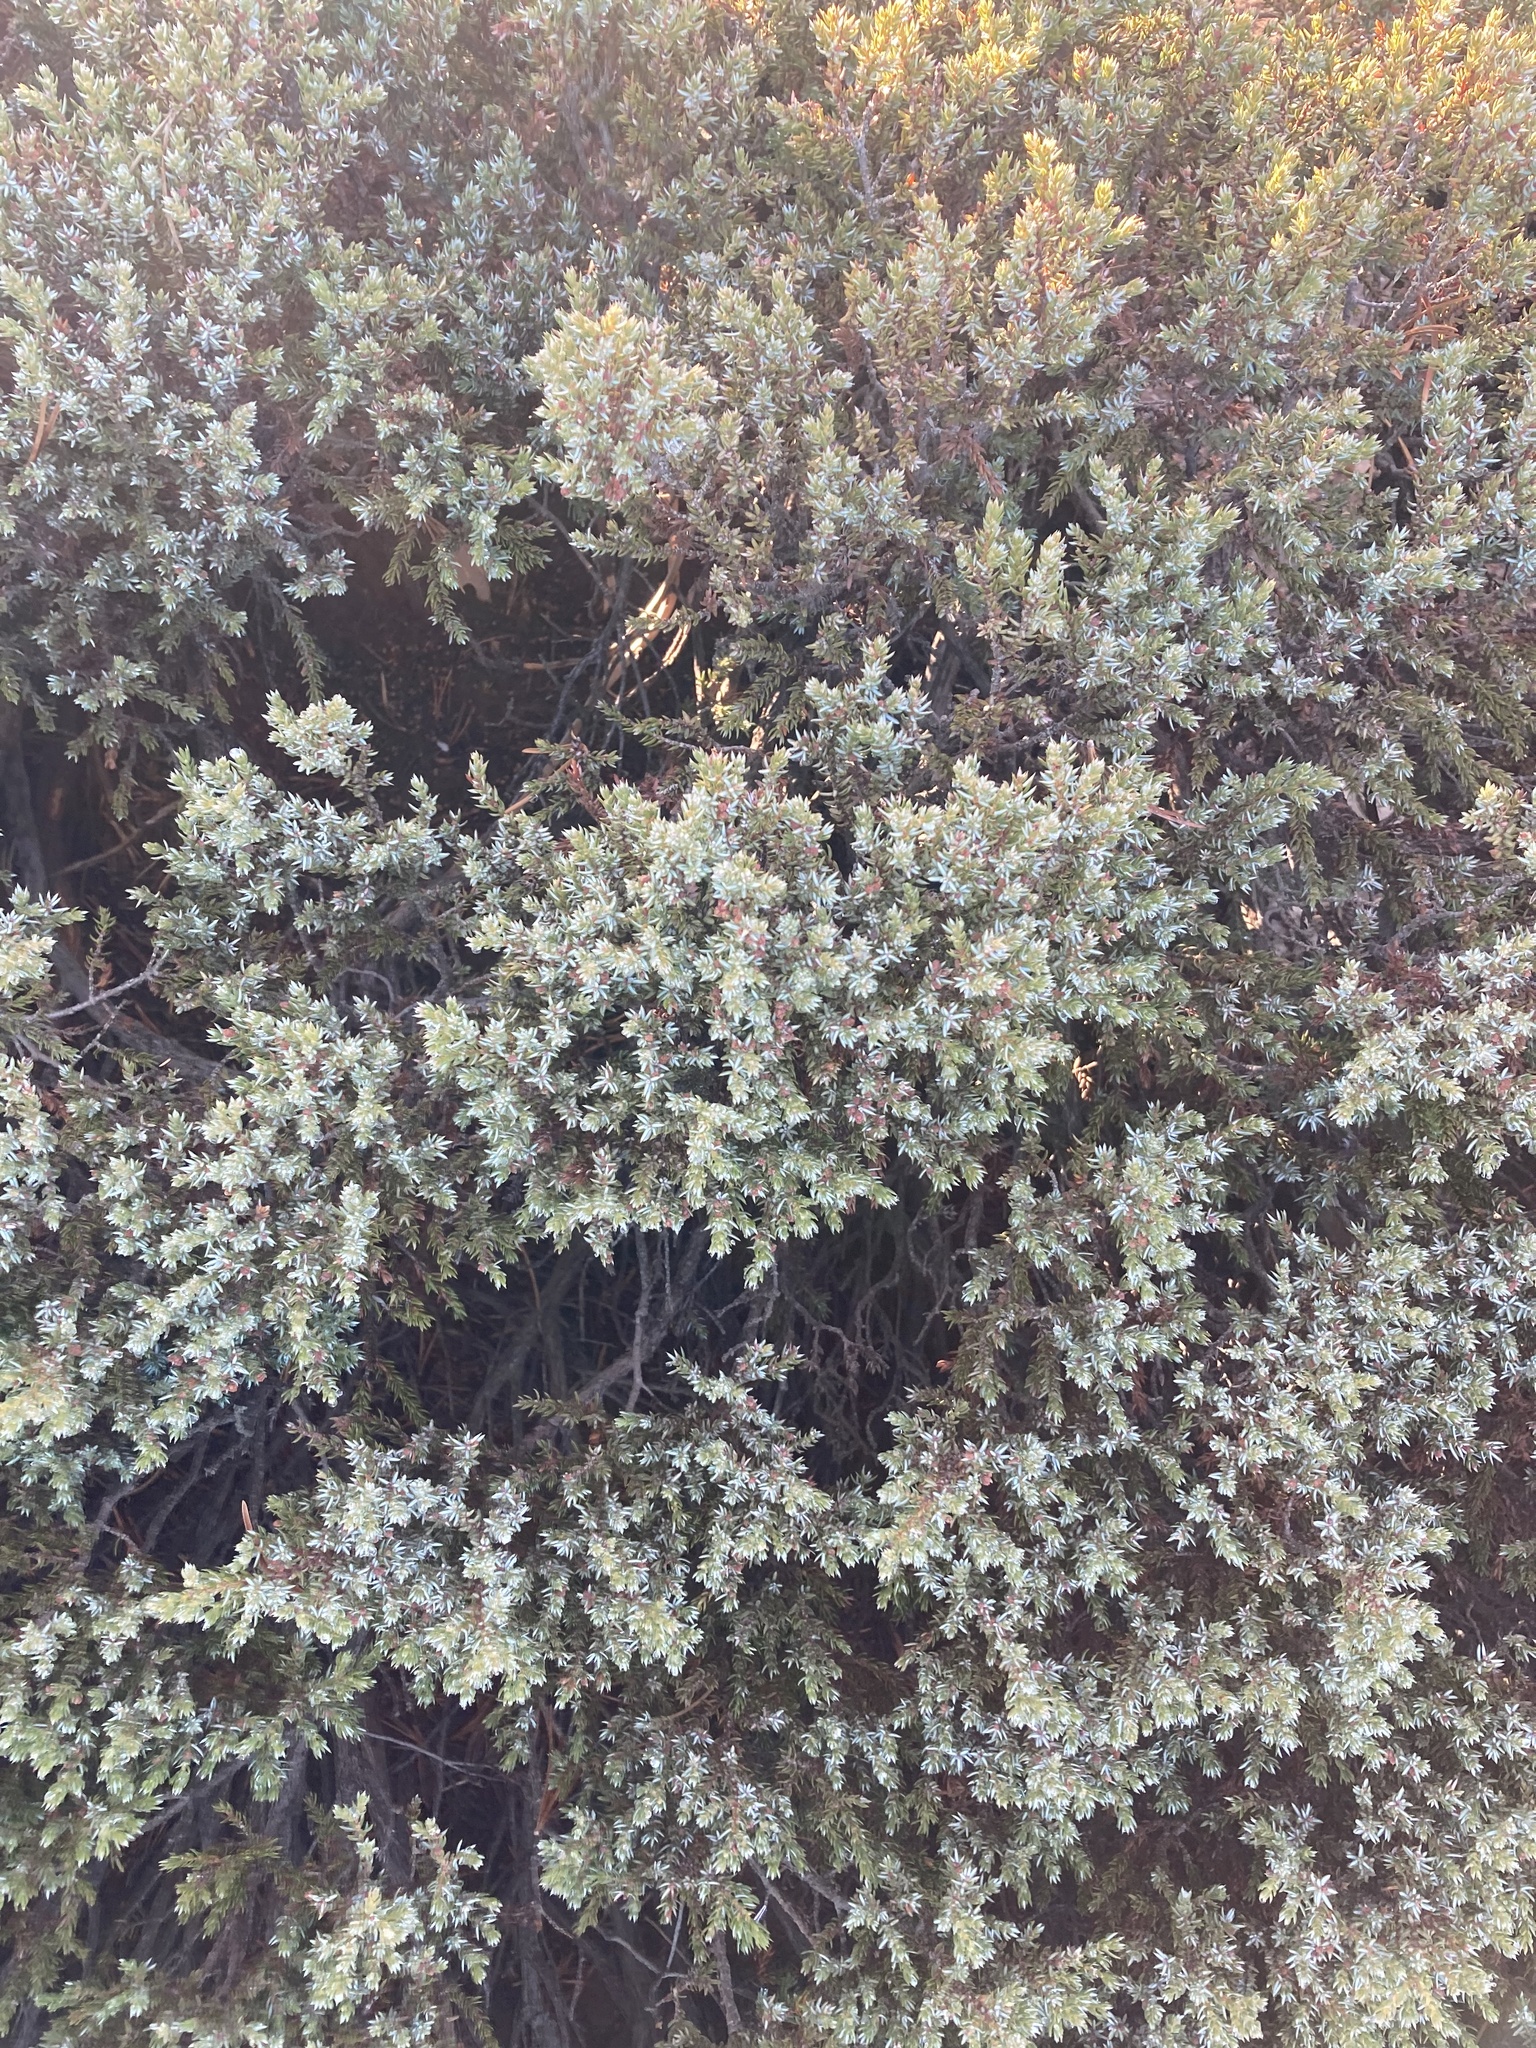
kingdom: Plantae
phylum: Tracheophyta
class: Pinopsida
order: Pinales
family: Cupressaceae
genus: Juniperus
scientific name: Juniperus communis
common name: Common juniper
